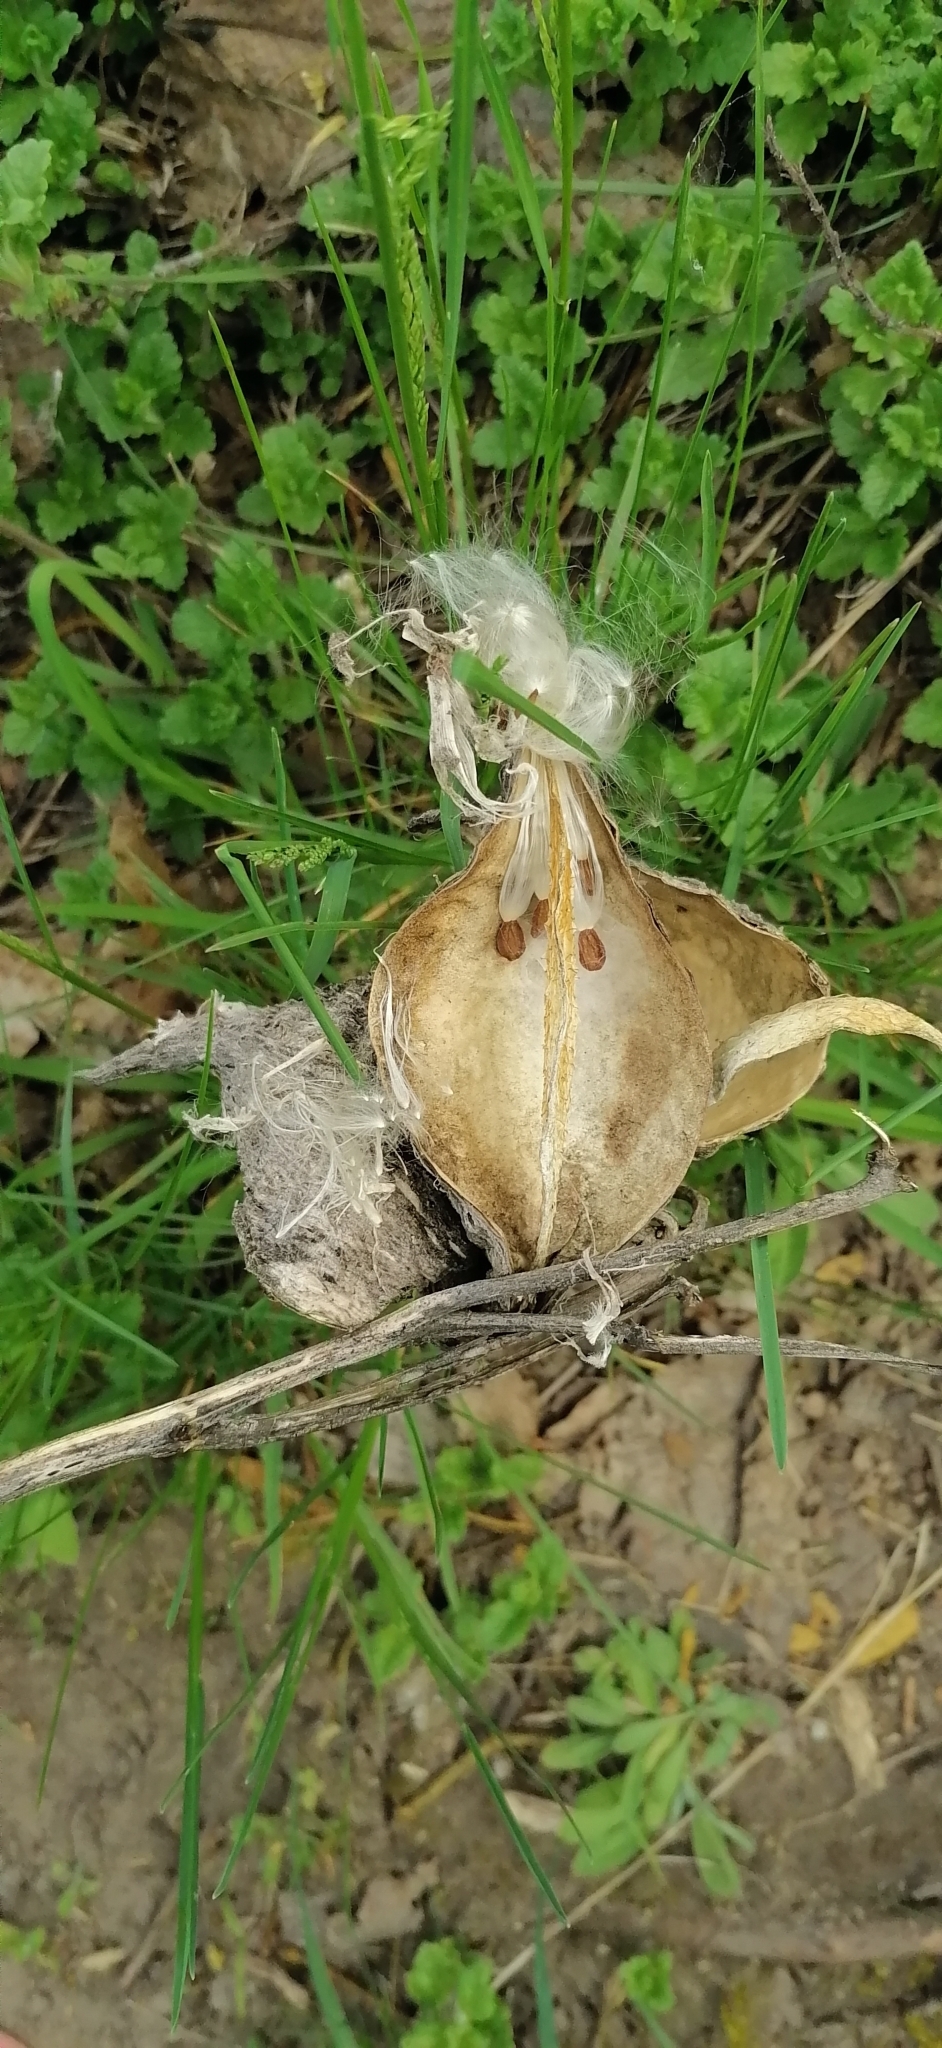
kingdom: Plantae
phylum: Tracheophyta
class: Magnoliopsida
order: Gentianales
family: Apocynaceae
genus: Asclepias
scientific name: Asclepias syriaca
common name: Common milkweed
